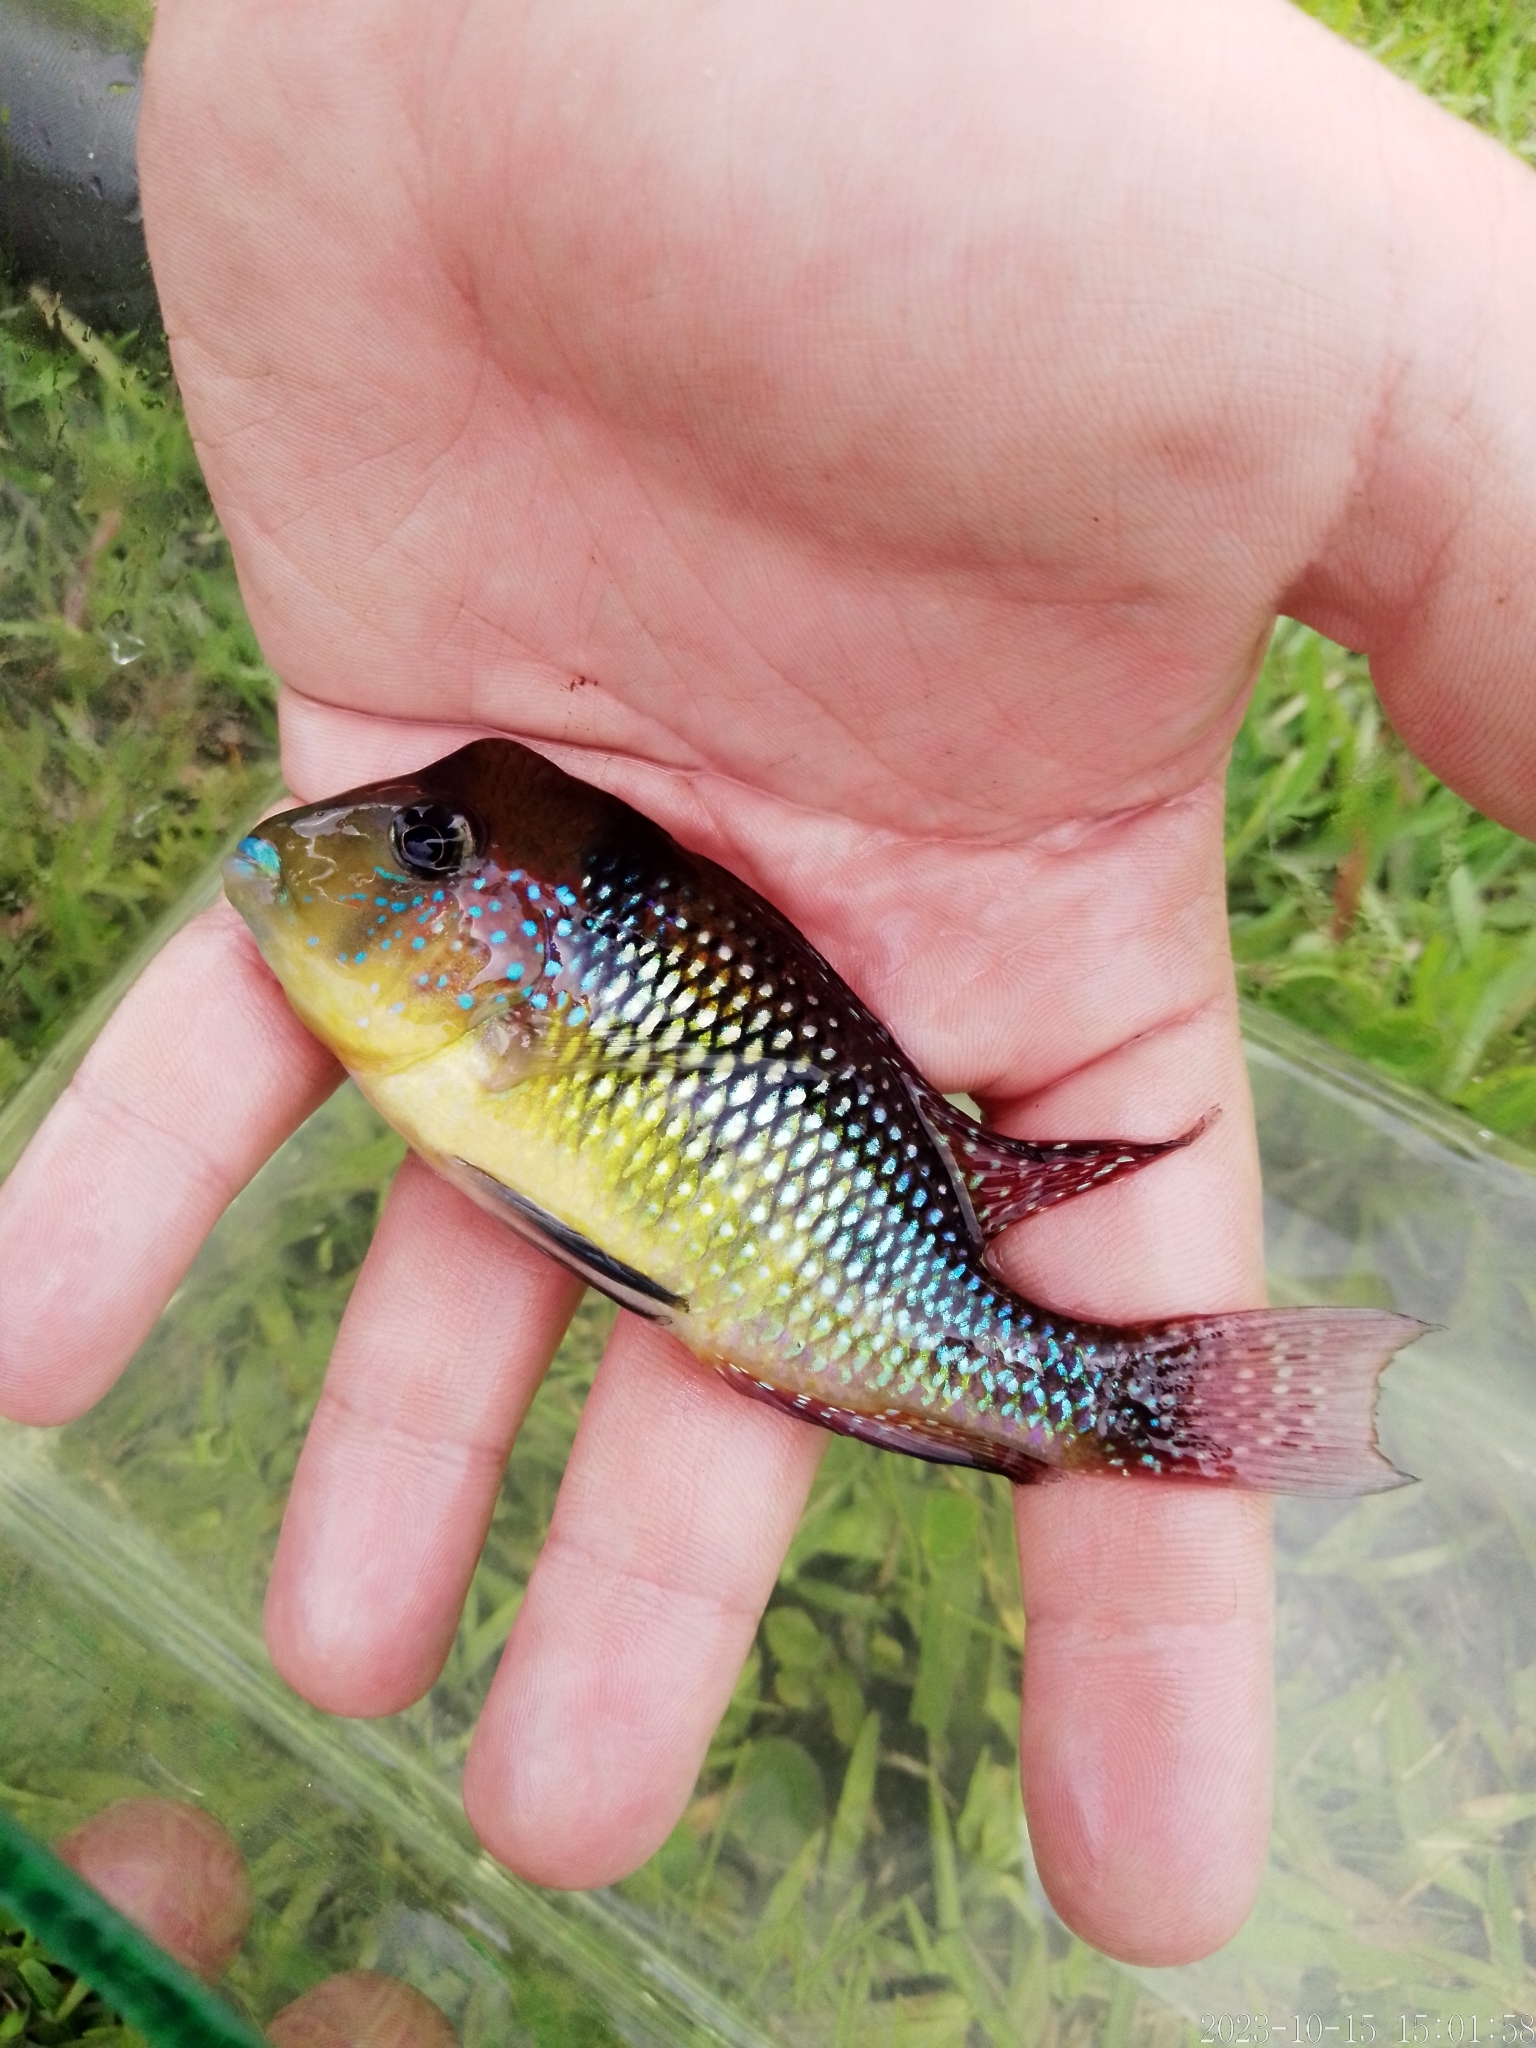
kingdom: Animalia
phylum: Chordata
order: Perciformes
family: Cichlidae
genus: Gymnogeophagus
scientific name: Gymnogeophagus gymnogenys
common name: Dark mother-of-pearl fish
